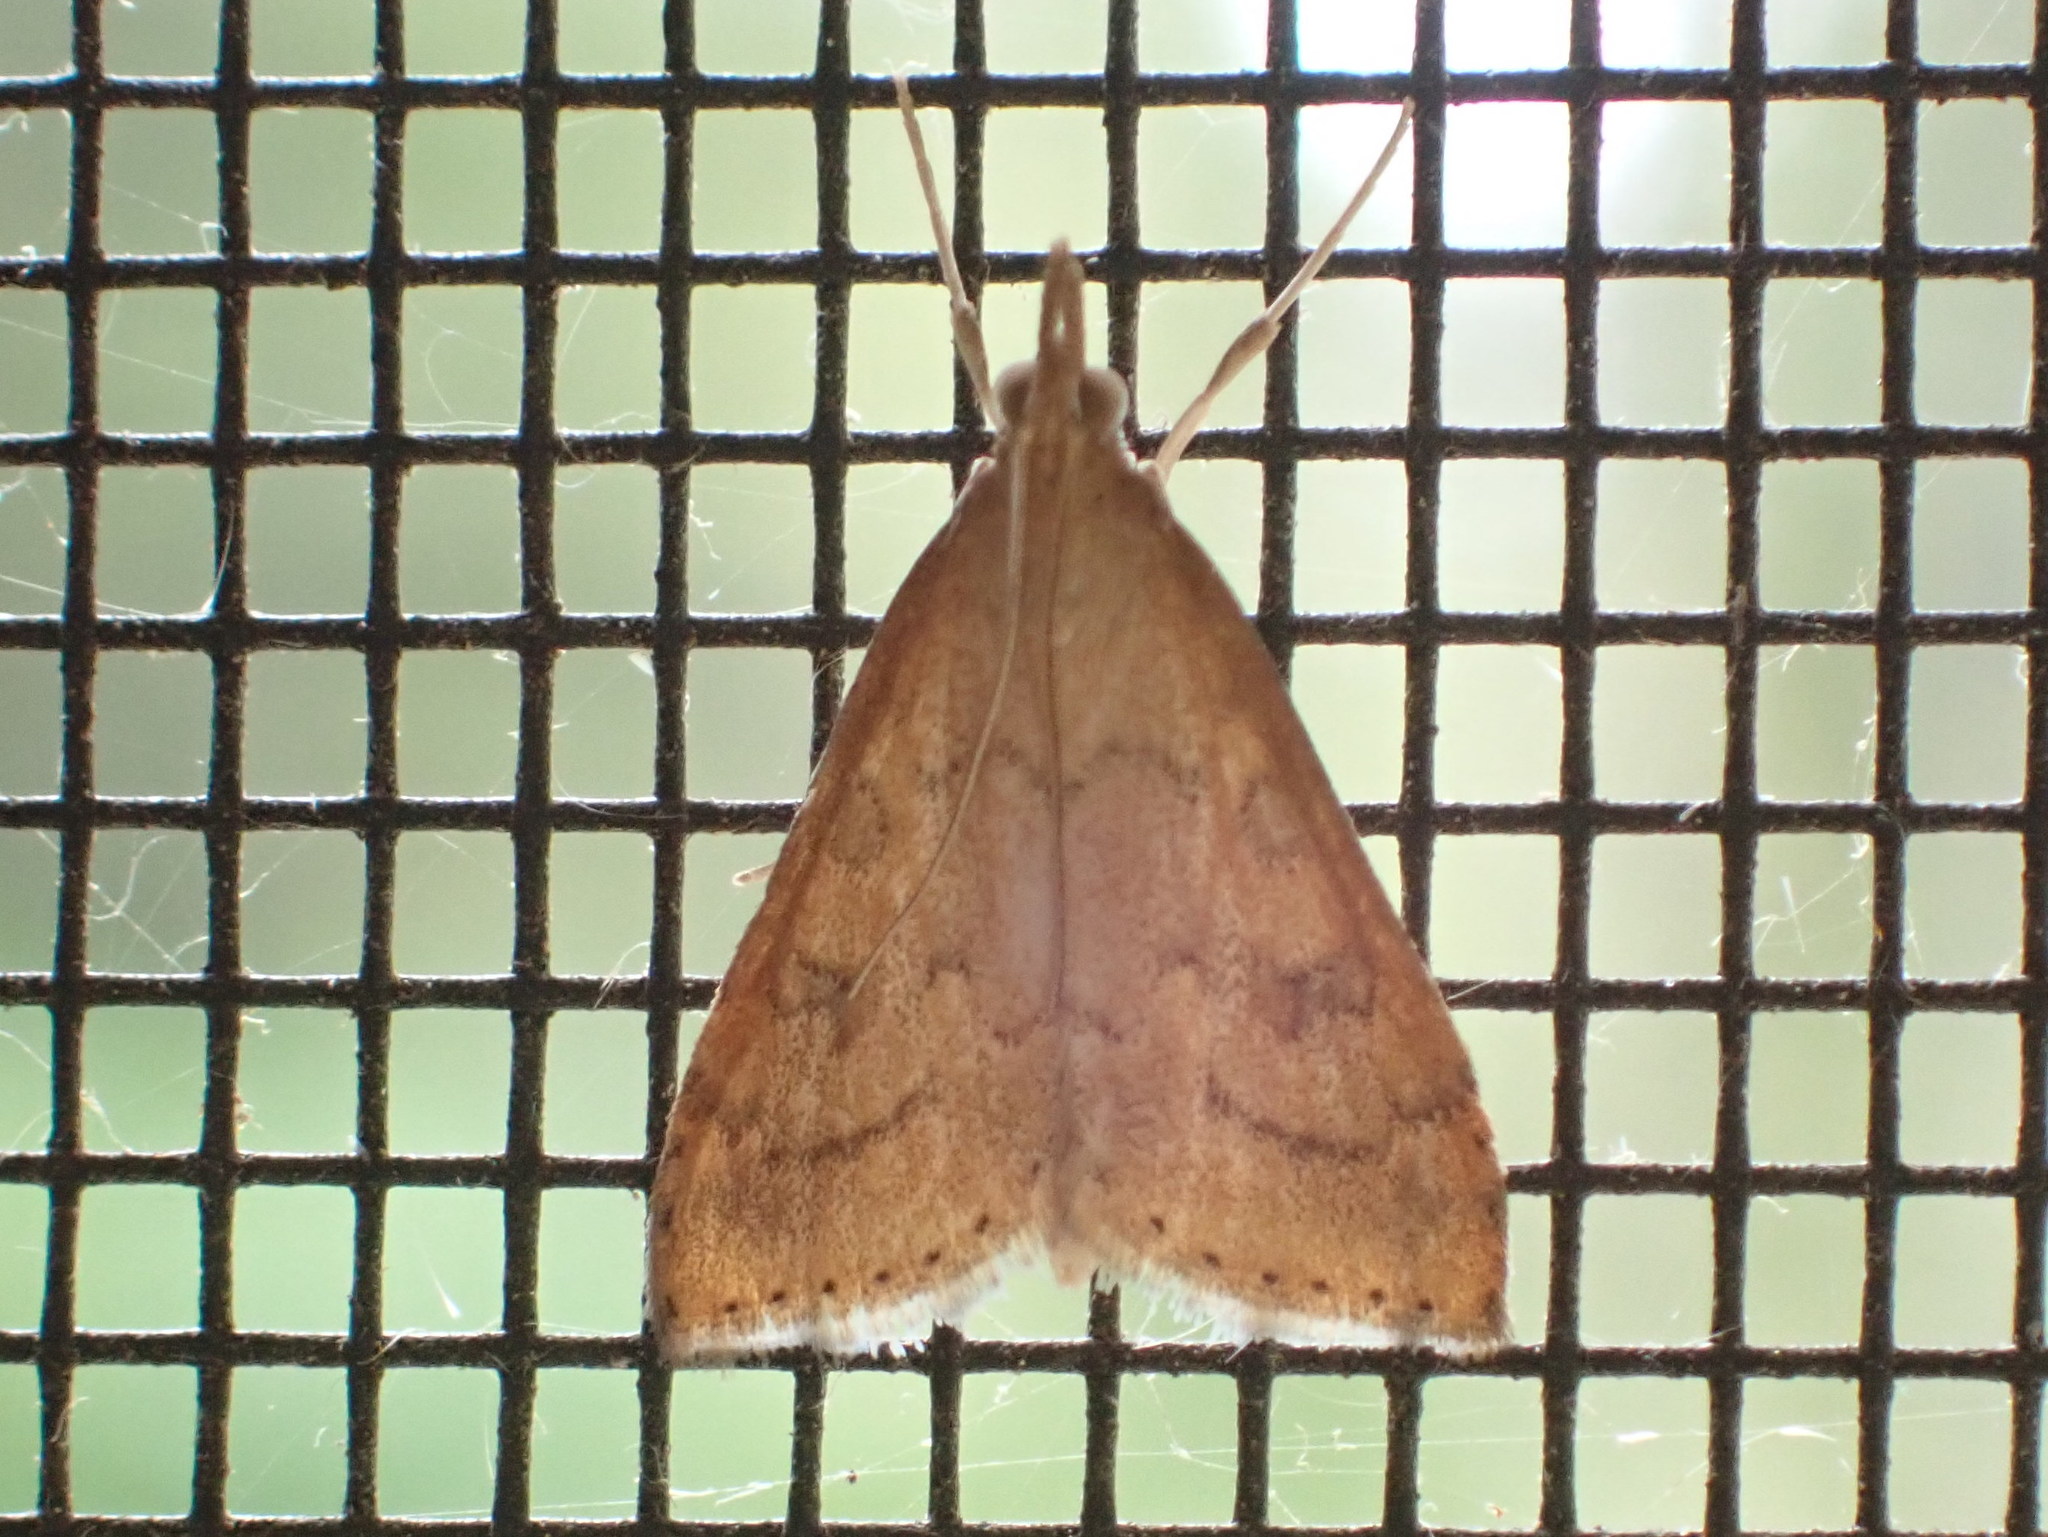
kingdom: Animalia
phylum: Arthropoda
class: Insecta
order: Lepidoptera
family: Crambidae
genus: Udea
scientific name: Udea rubigalis
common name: Celery leaftier moth
